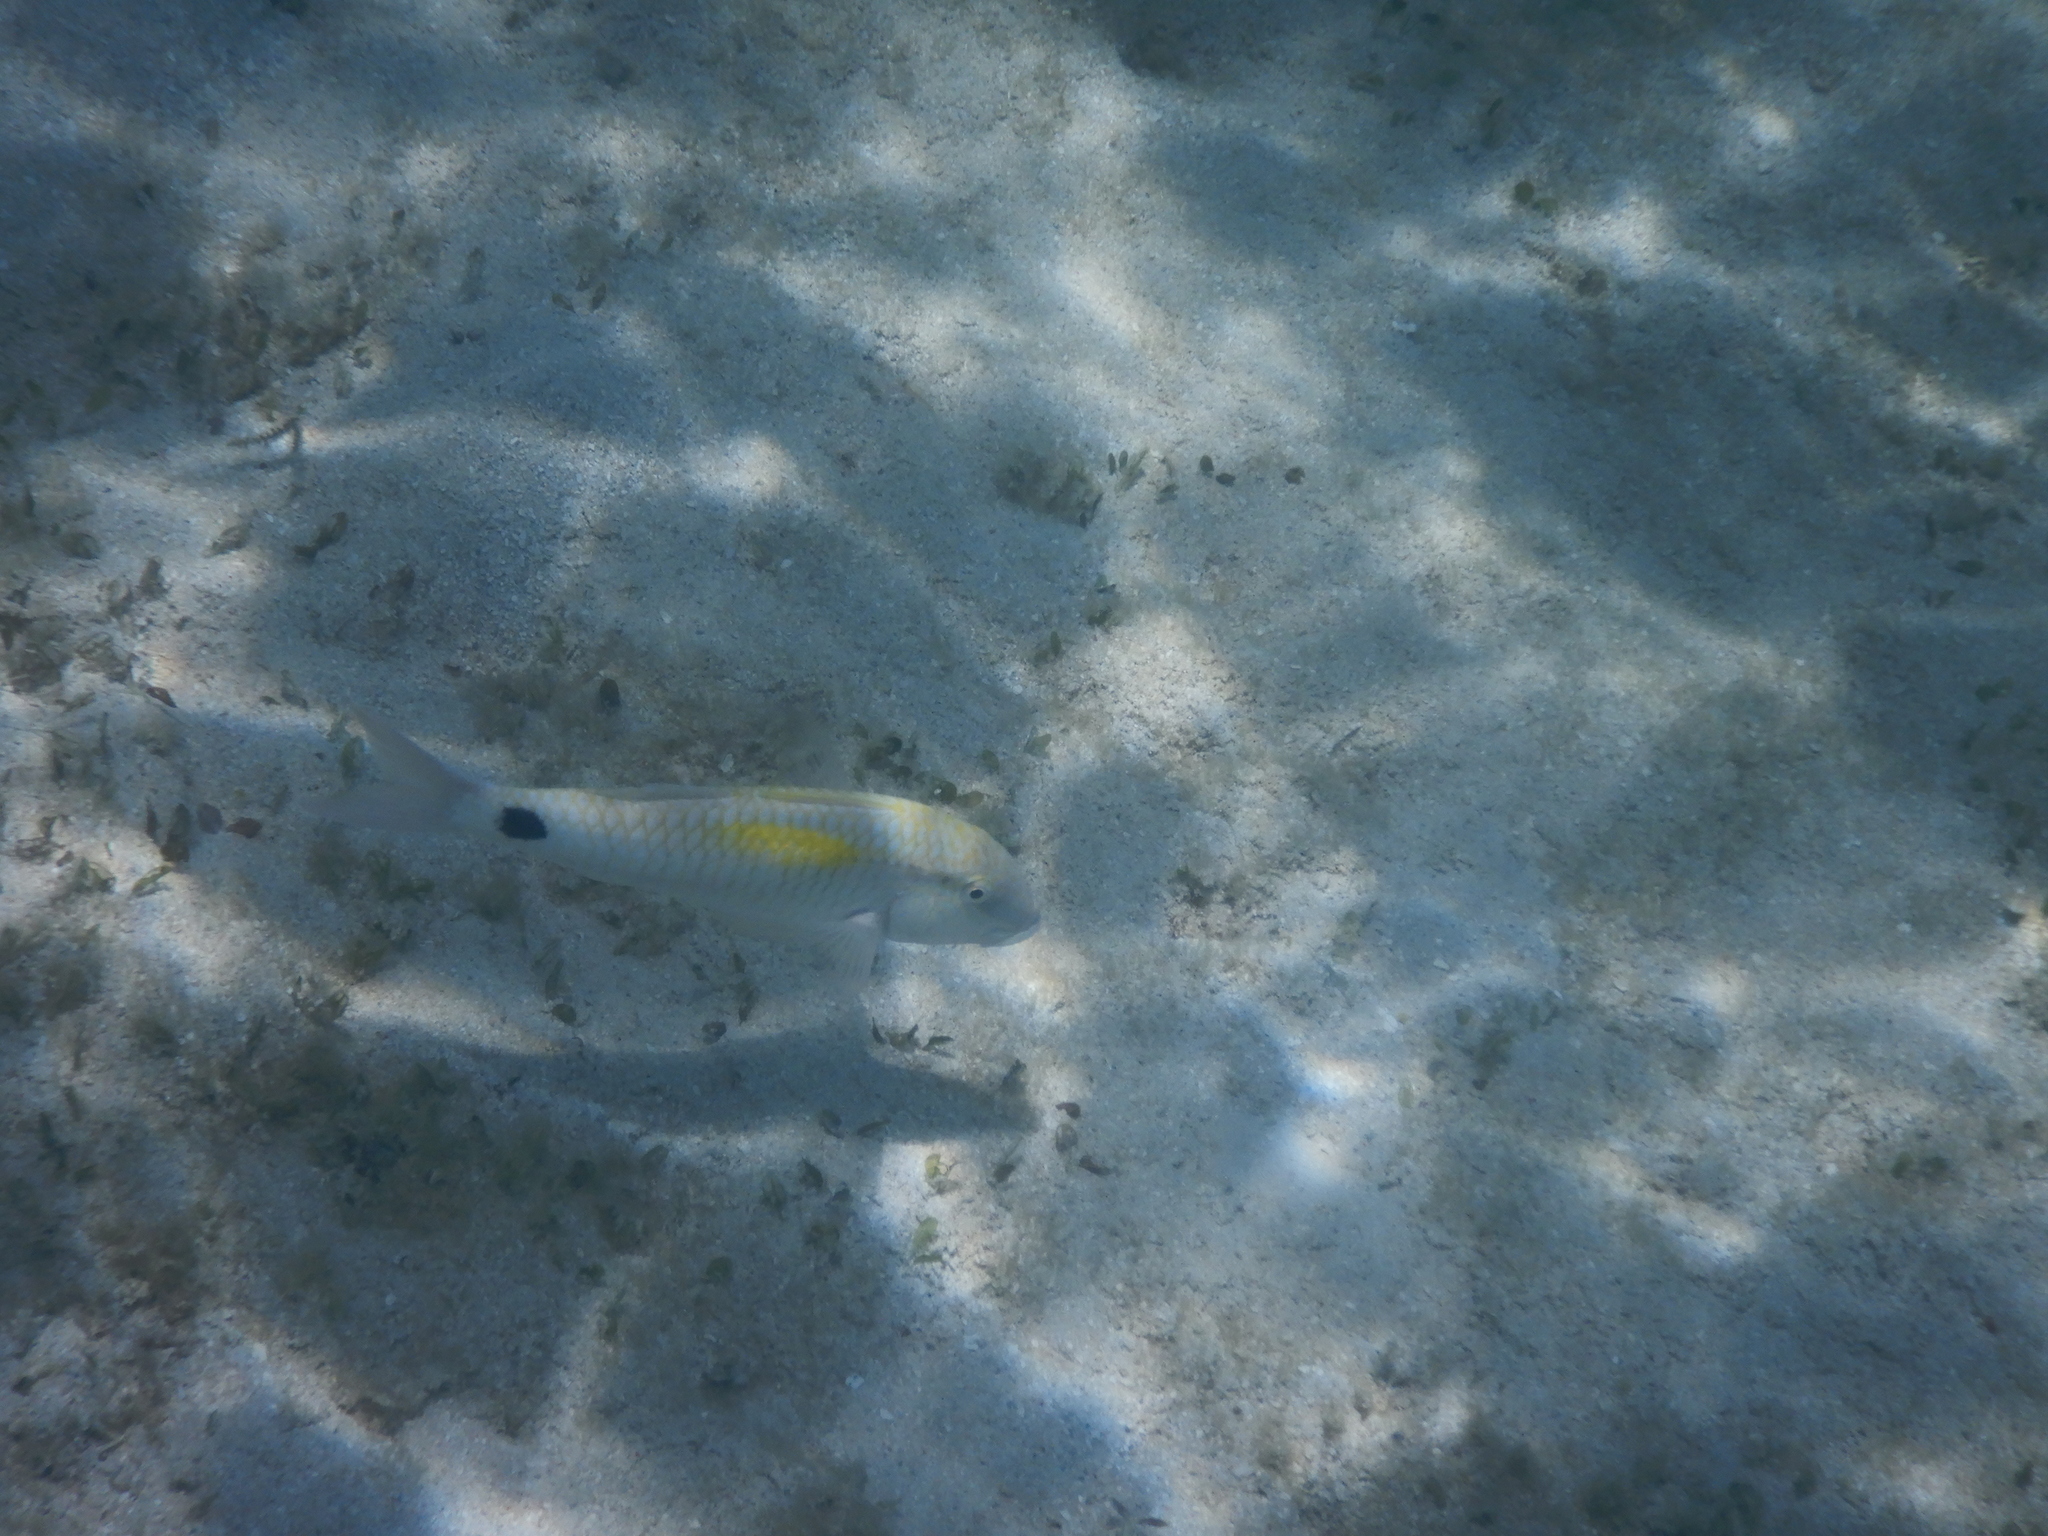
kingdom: Animalia
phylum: Chordata
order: Perciformes
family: Mullidae
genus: Parupeneus
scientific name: Parupeneus indicus
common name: Indian goatfish
